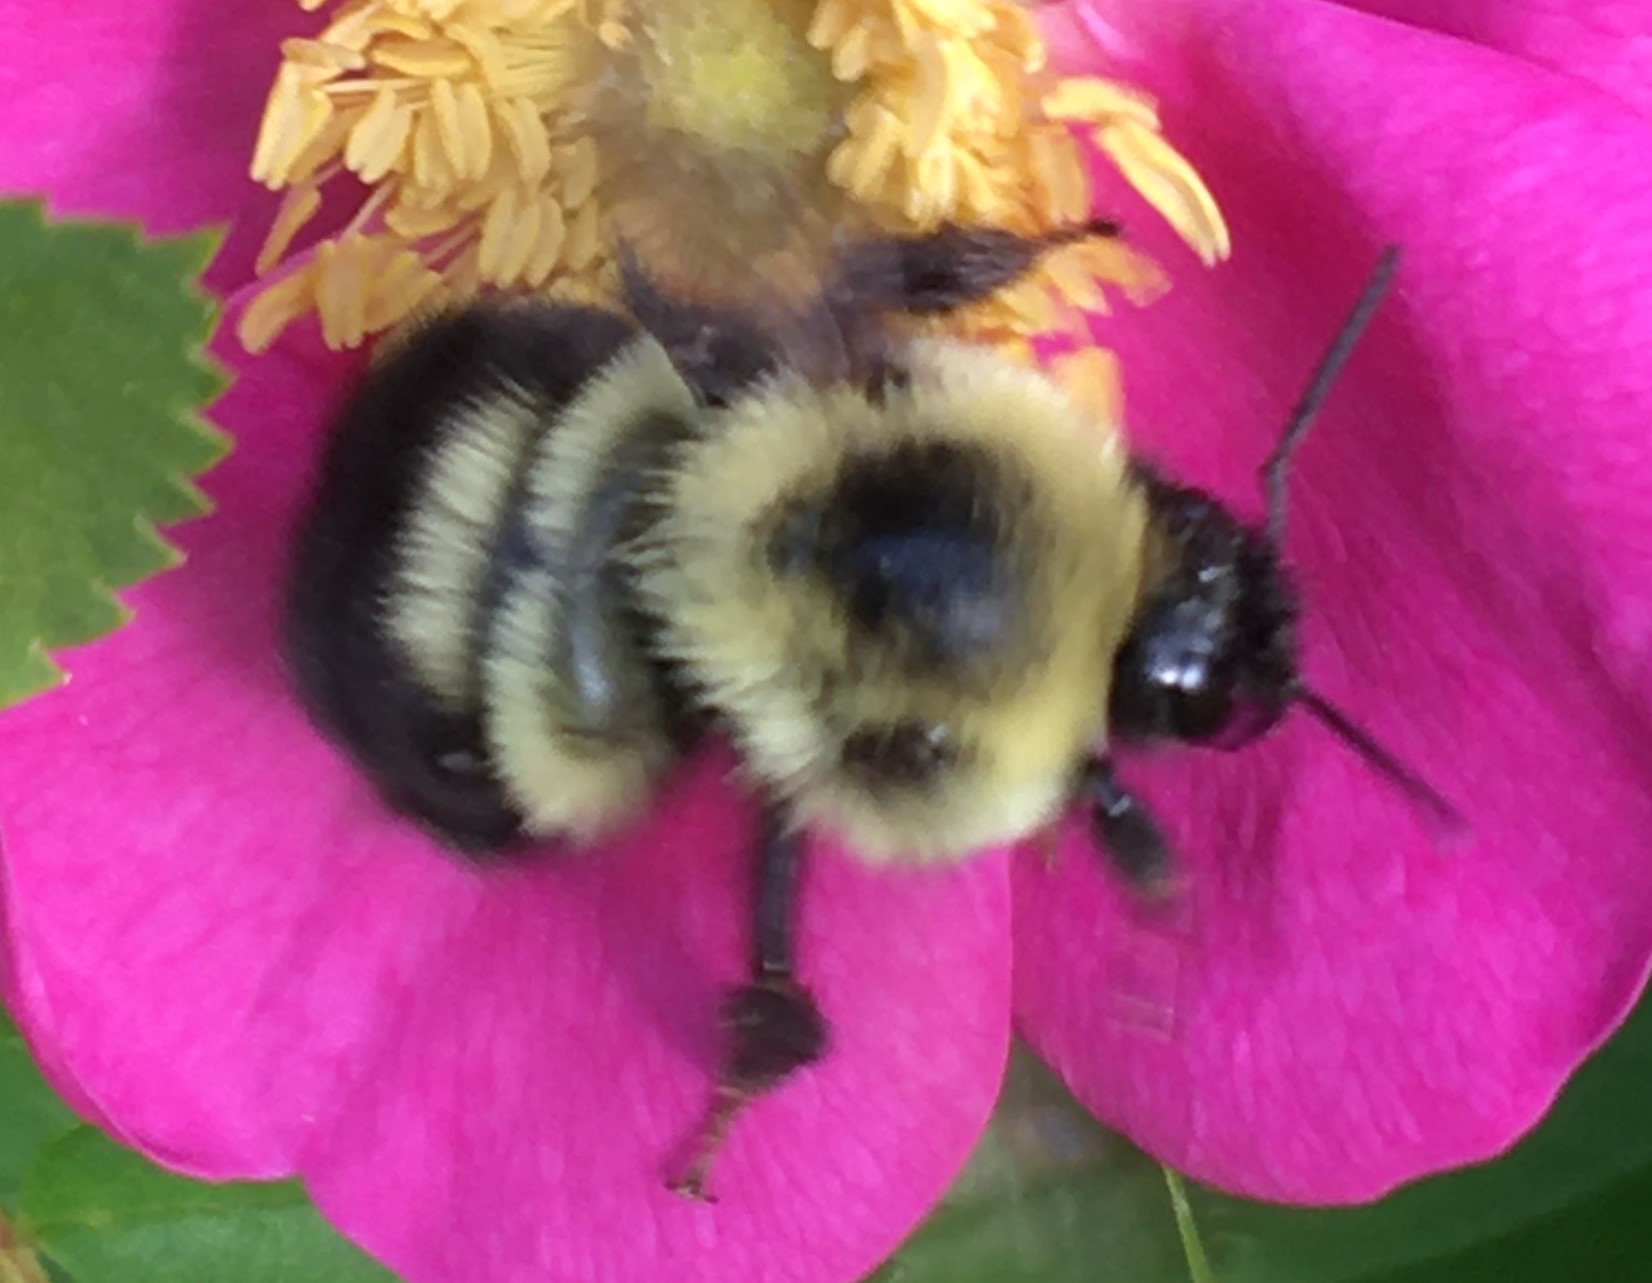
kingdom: Animalia
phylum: Arthropoda
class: Insecta
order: Hymenoptera
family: Apidae
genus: Bombus
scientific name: Bombus bimaculatus
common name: Two-spotted bumble bee
